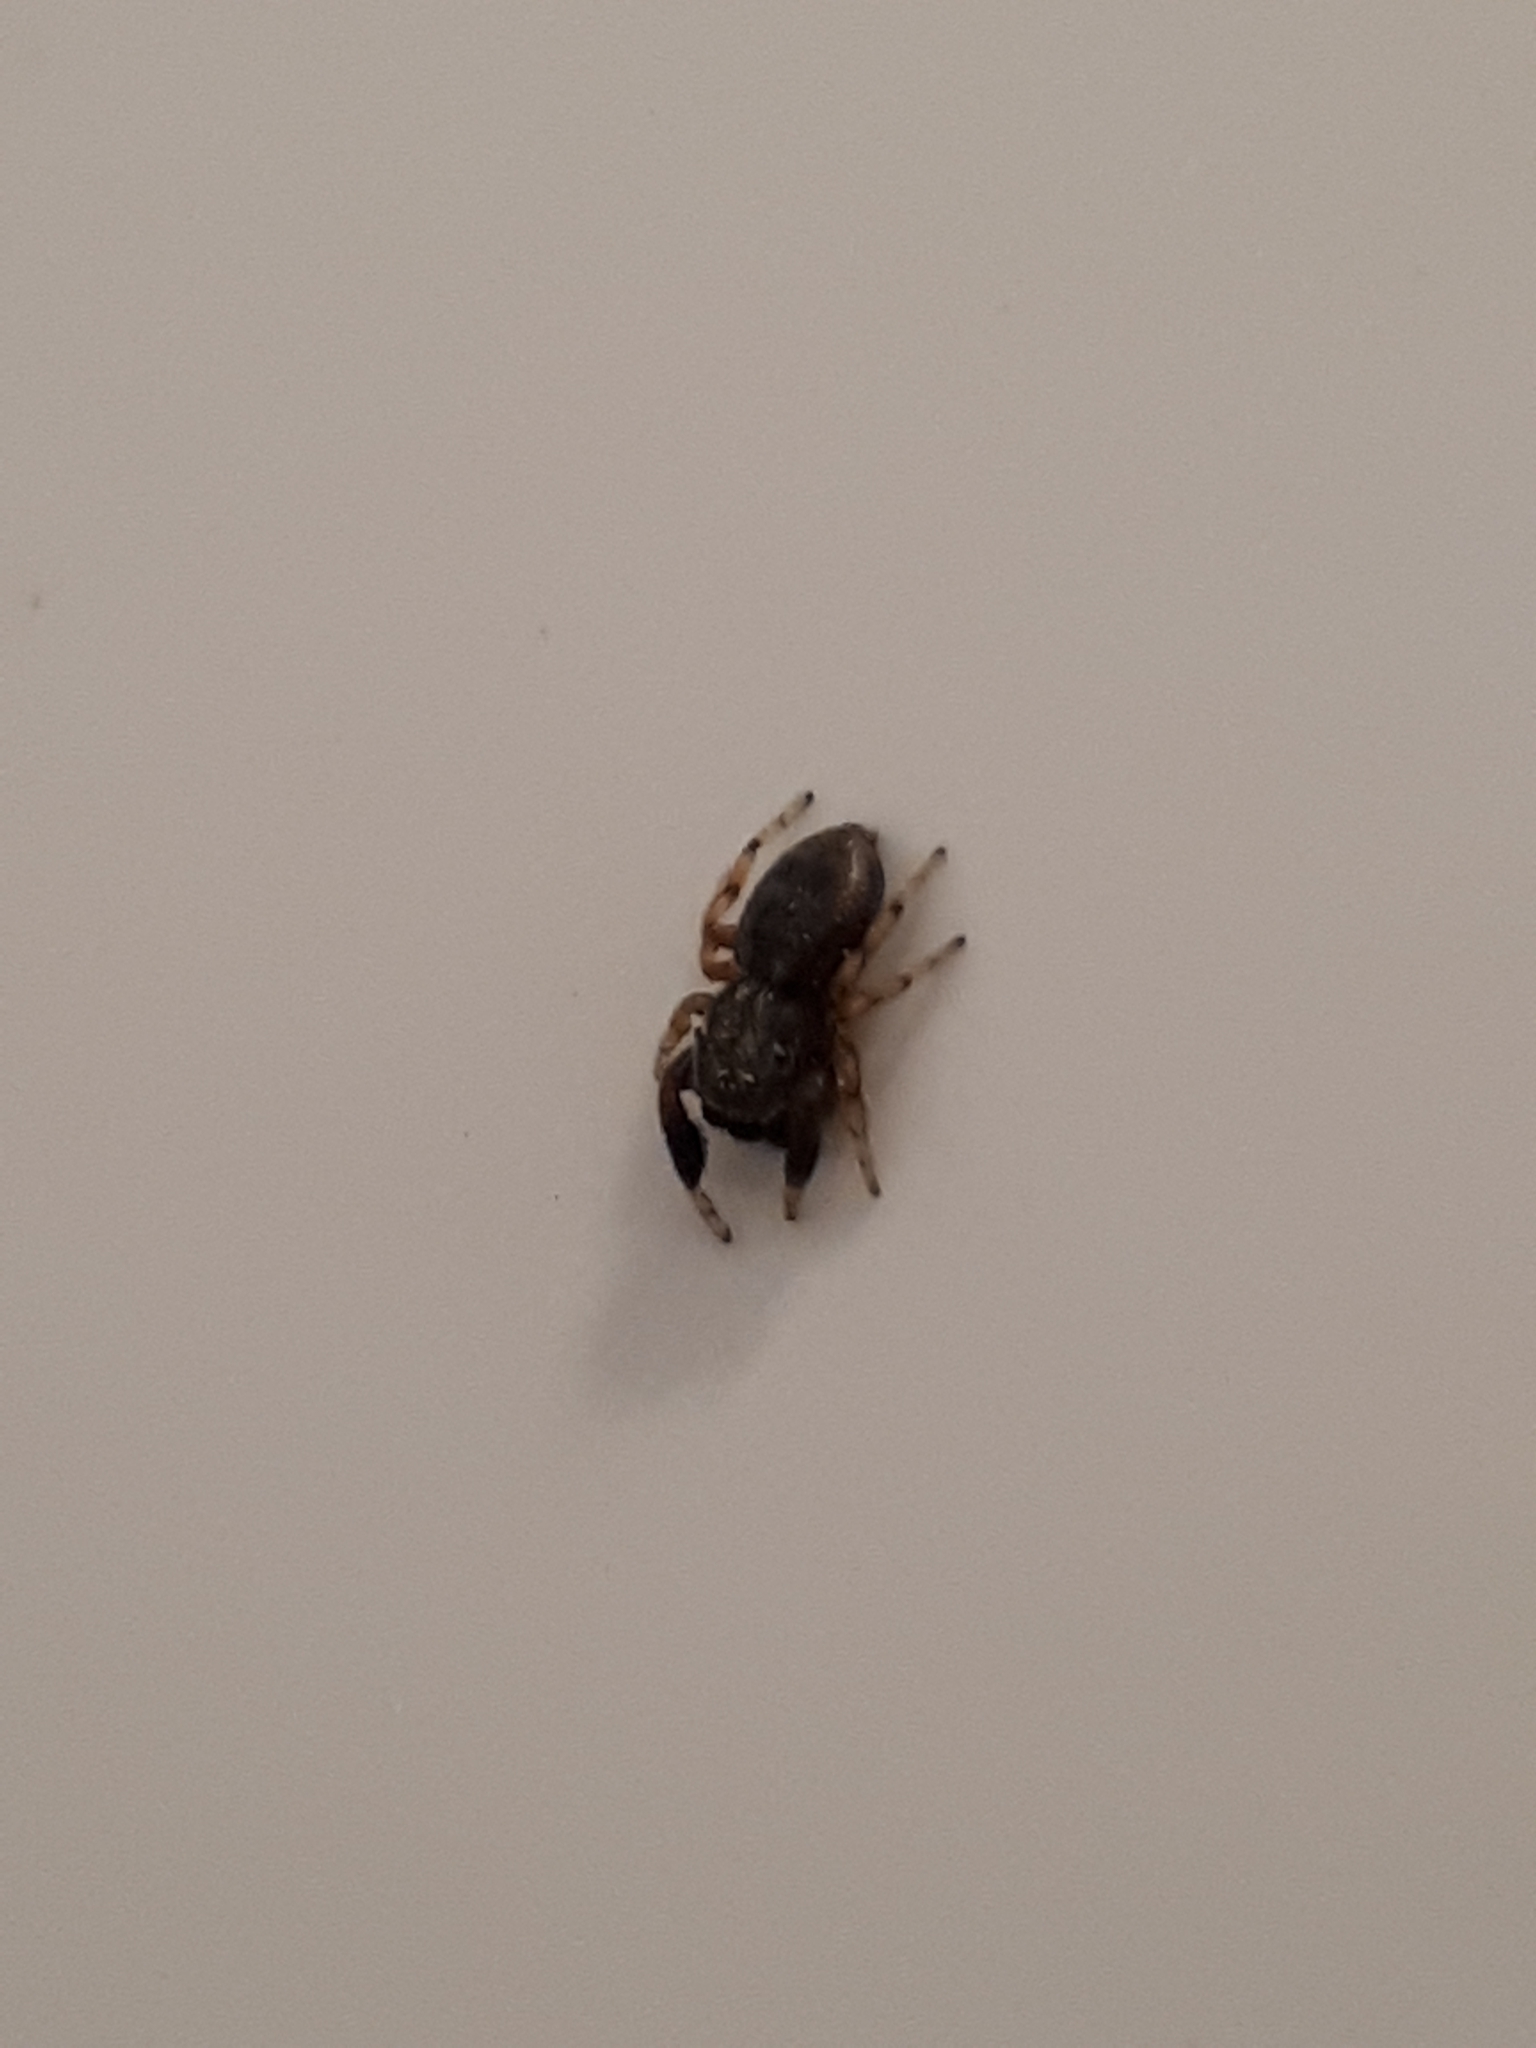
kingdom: Animalia
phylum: Arthropoda
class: Arachnida
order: Araneae
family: Salticidae
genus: Ballus
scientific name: Ballus chalybeius
